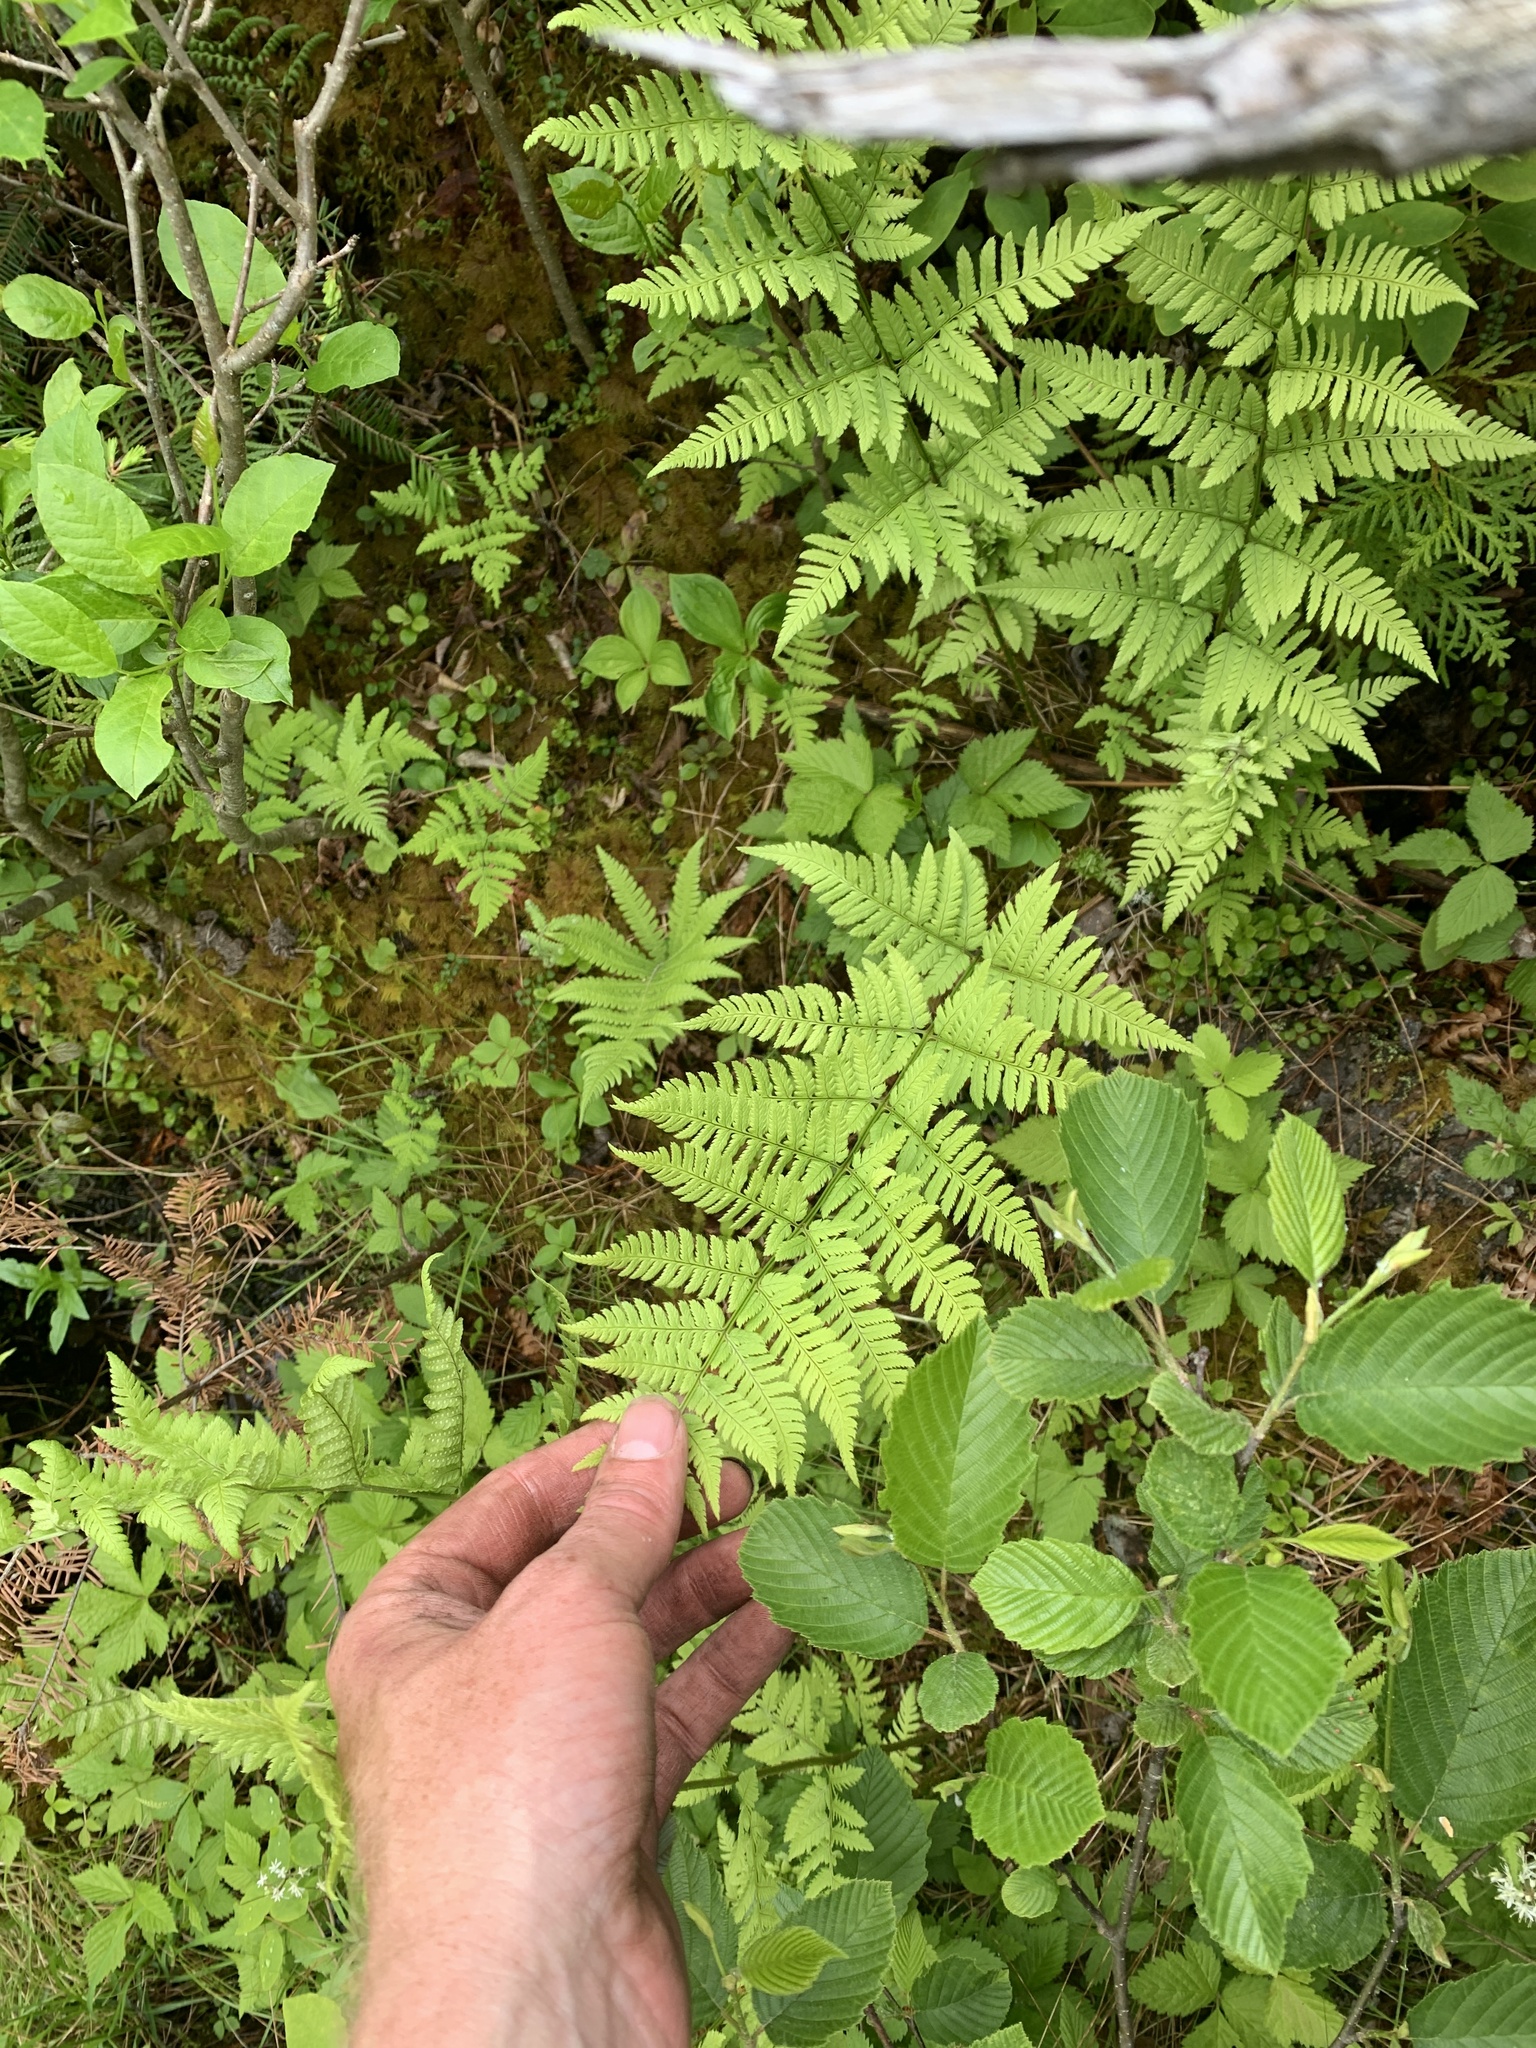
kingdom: Plantae
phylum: Tracheophyta
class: Polypodiopsida
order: Polypodiales
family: Dryopteridaceae
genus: Dryopteris
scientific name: Dryopteris carthusiana
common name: Narrow buckler-fern
